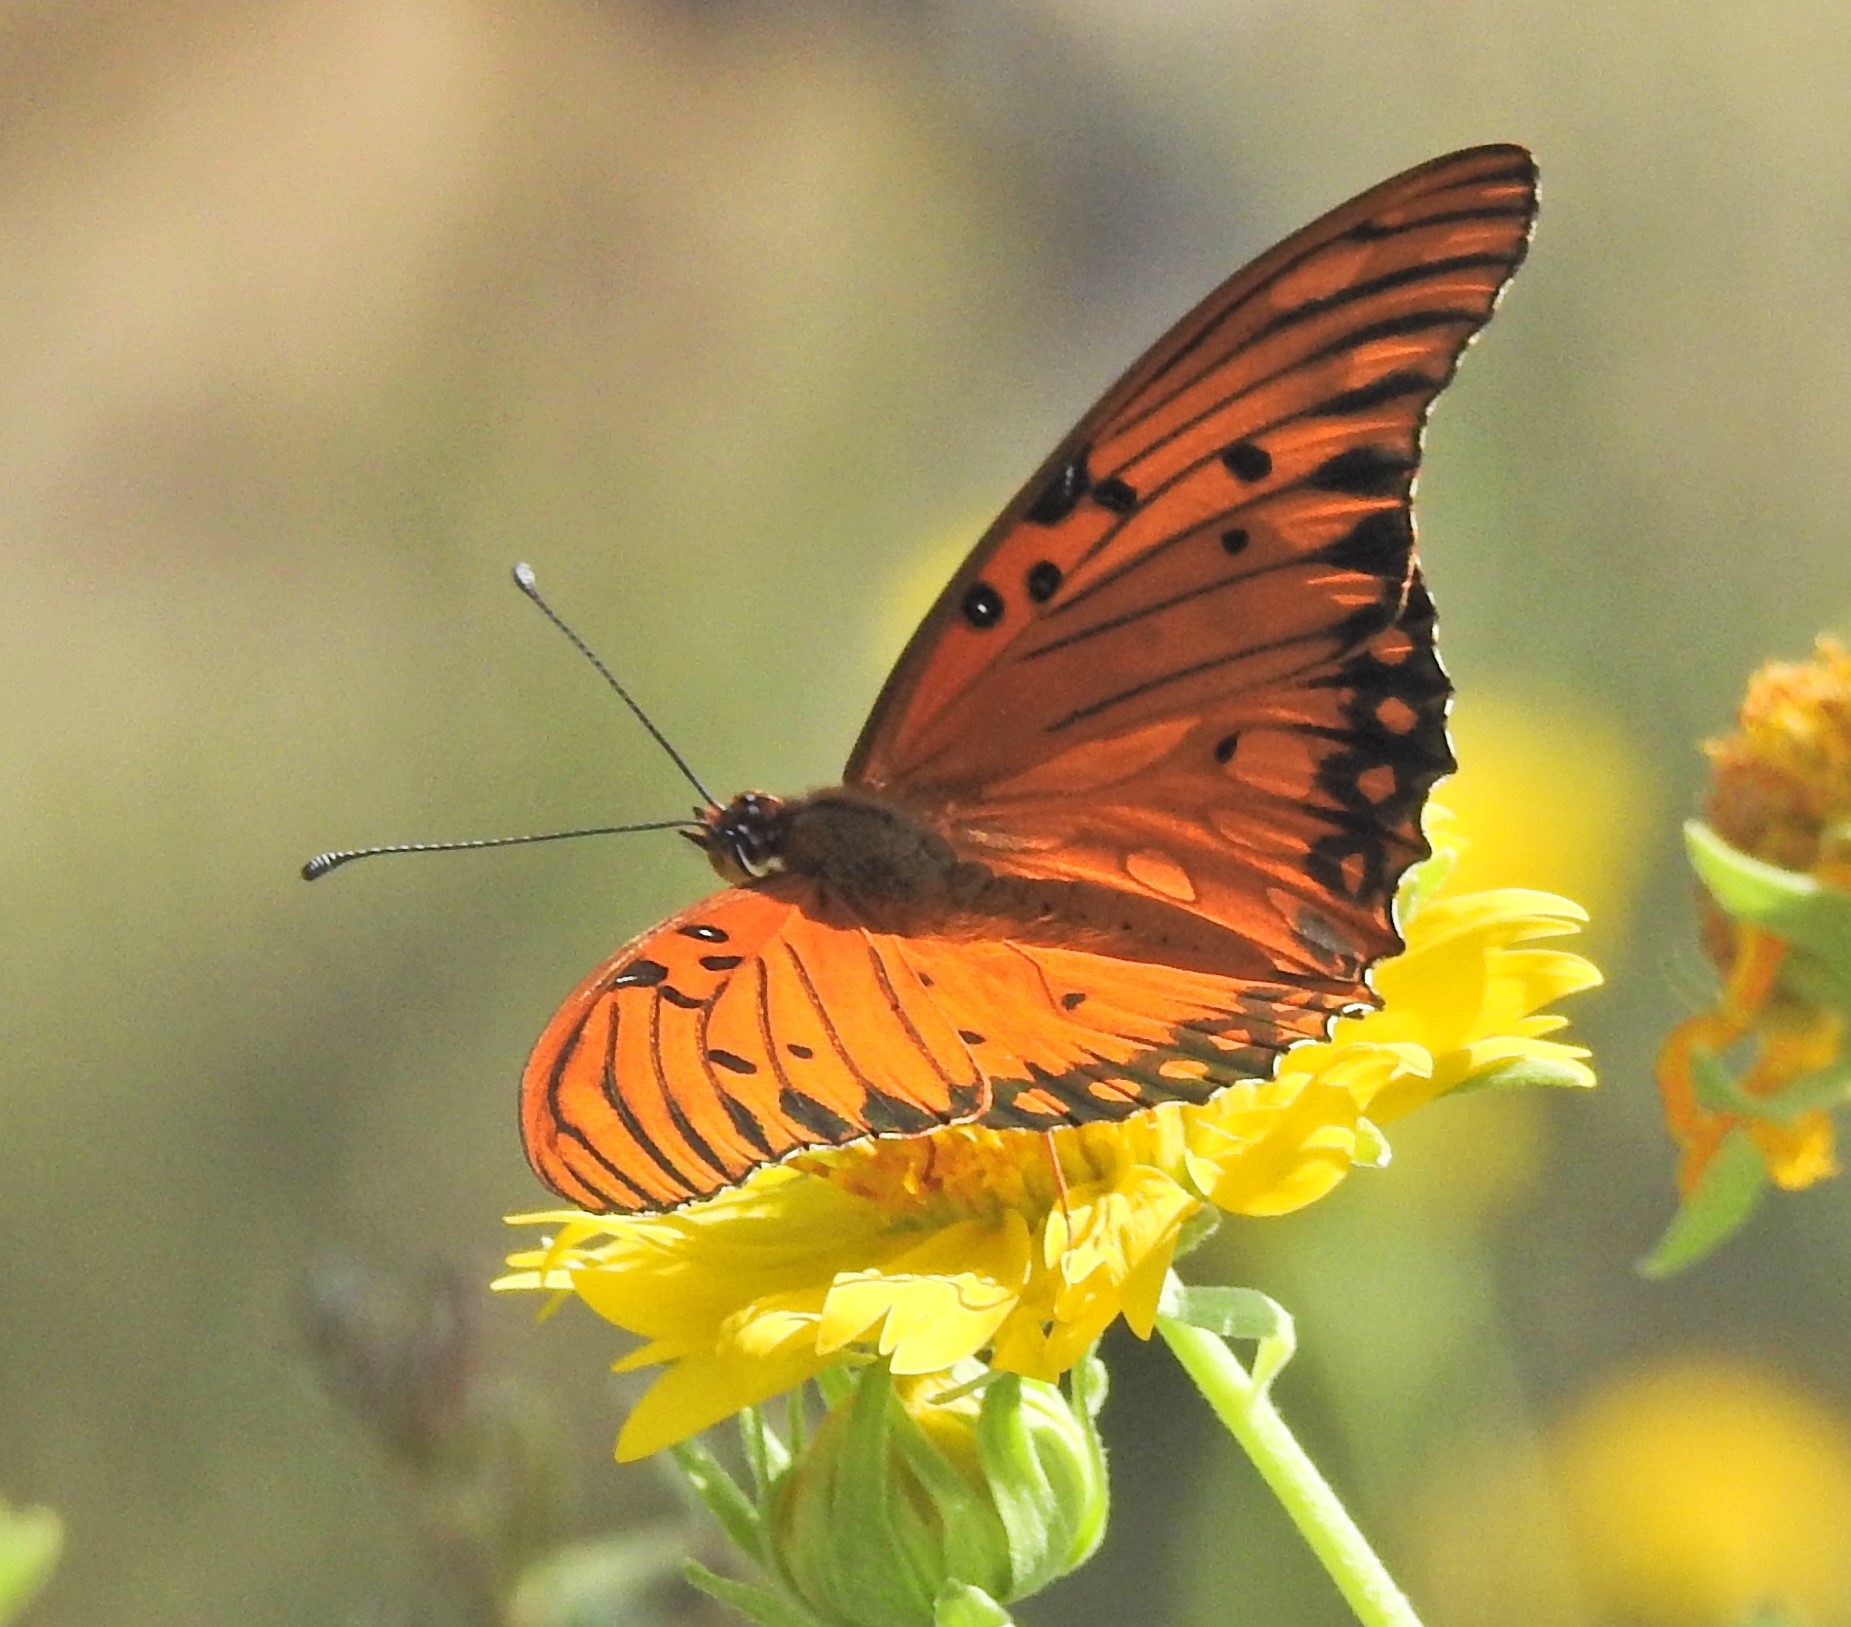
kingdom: Animalia
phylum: Arthropoda
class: Insecta
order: Lepidoptera
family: Nymphalidae
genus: Dione
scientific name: Dione vanillae
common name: Gulf fritillary
